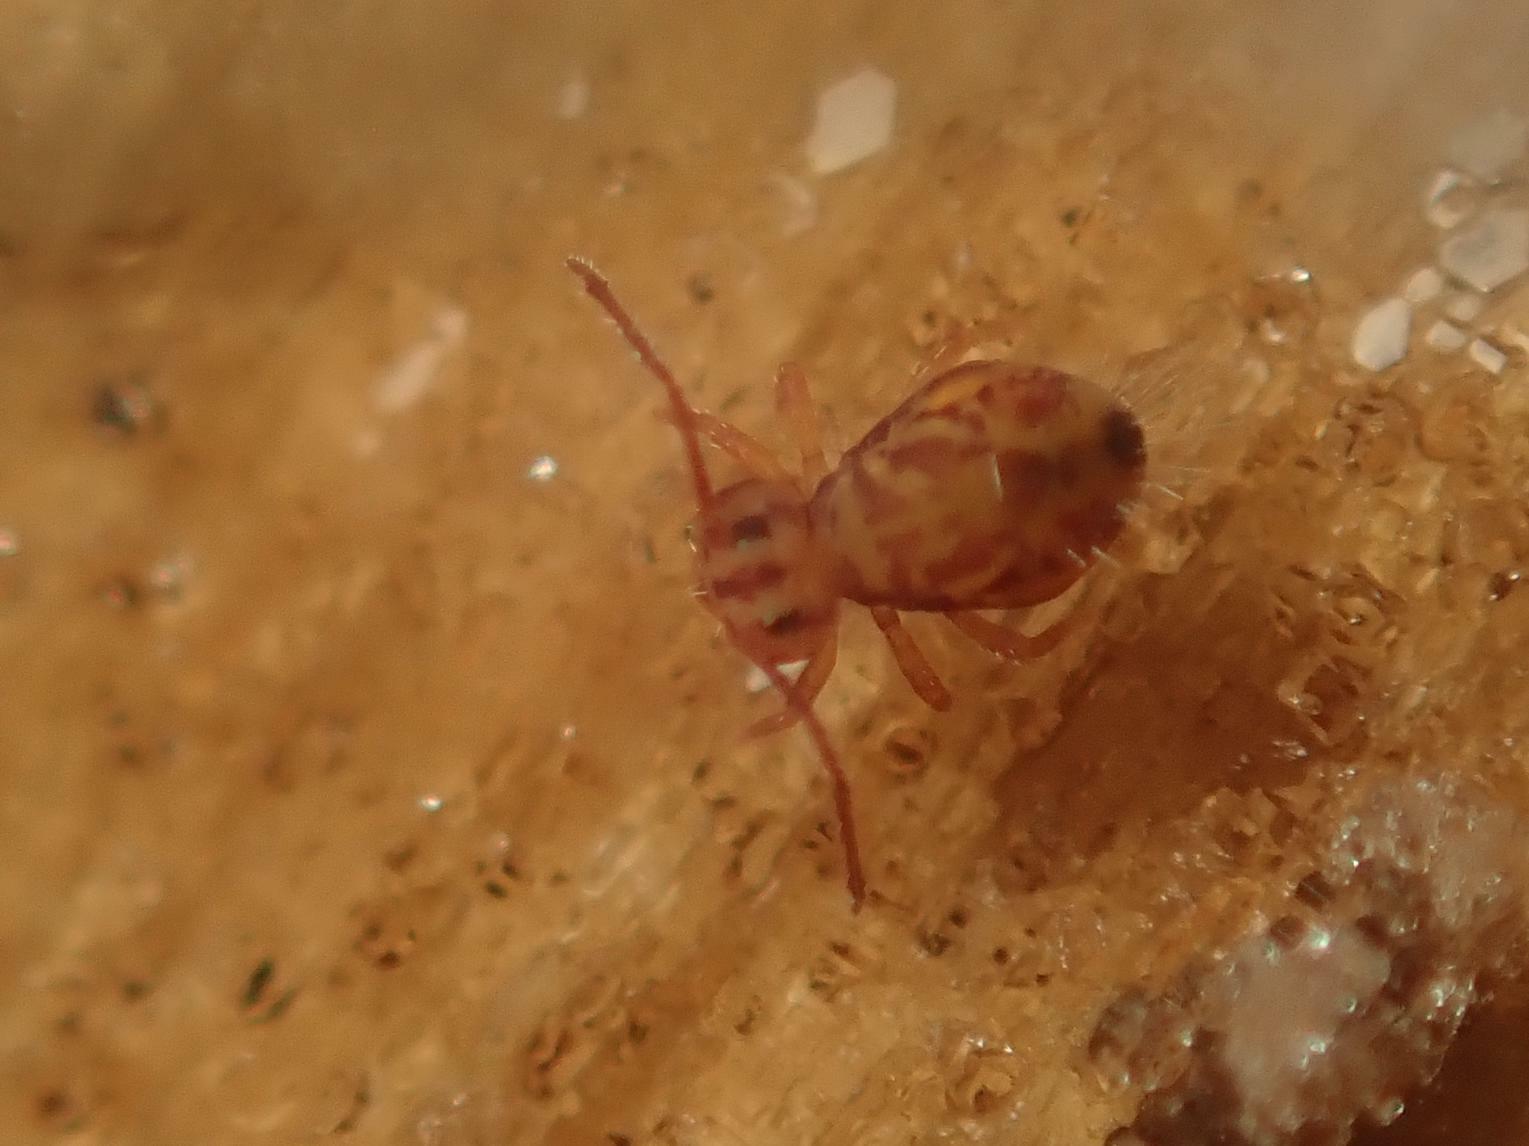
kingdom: Animalia
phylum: Arthropoda
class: Collembola
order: Symphypleona
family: Dicyrtomidae
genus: Dicyrtomina
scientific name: Dicyrtomina ornata
